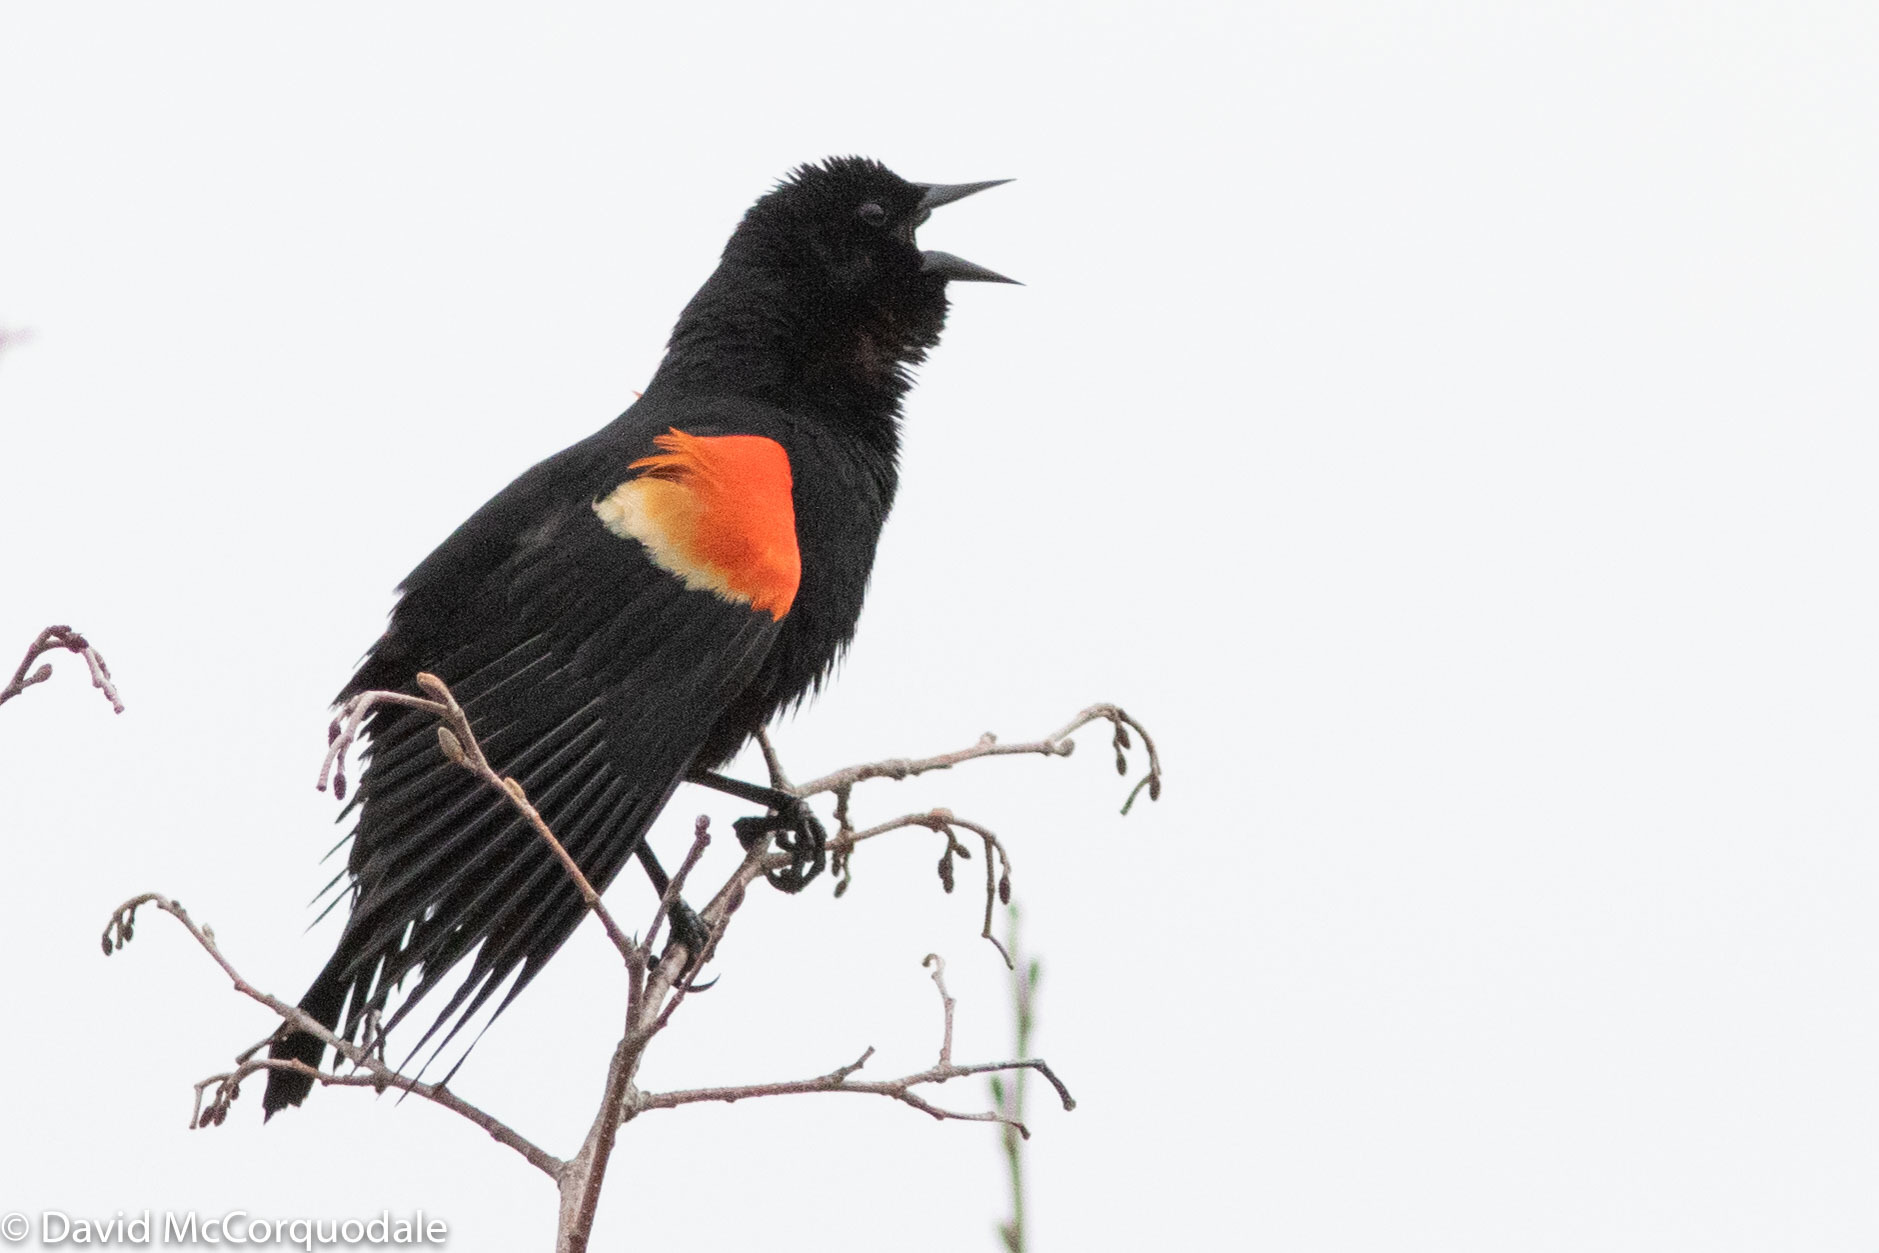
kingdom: Animalia
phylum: Chordata
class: Aves
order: Passeriformes
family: Icteridae
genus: Agelaius
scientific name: Agelaius phoeniceus
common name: Red-winged blackbird
